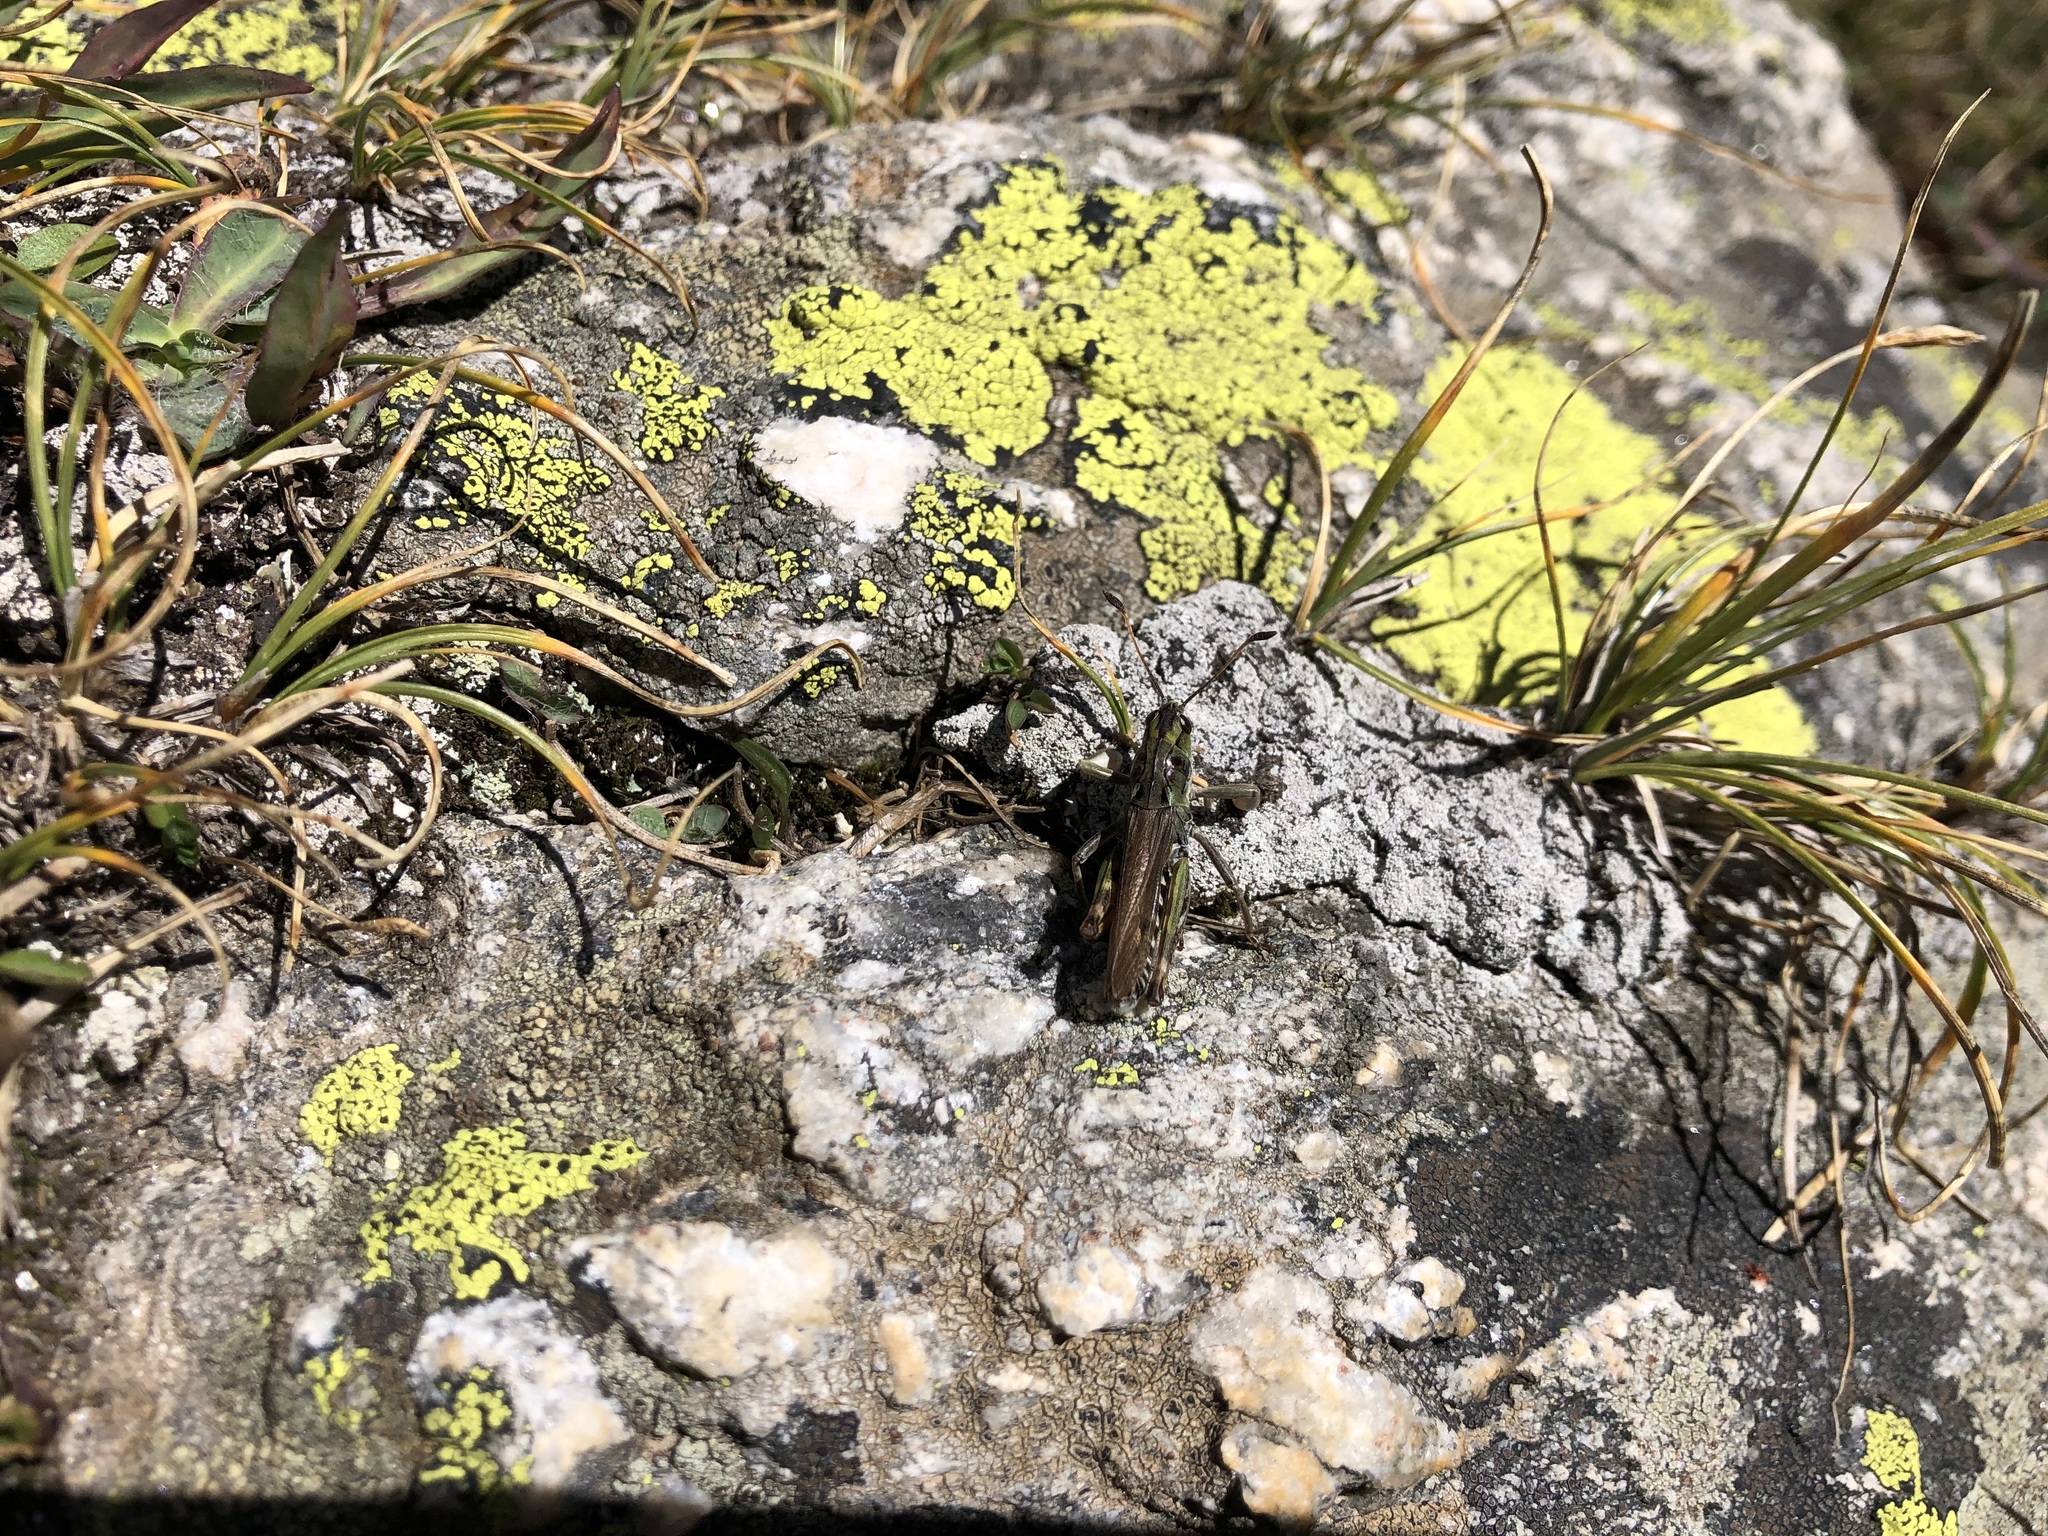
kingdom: Animalia
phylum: Arthropoda
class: Insecta
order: Orthoptera
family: Acrididae
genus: Gomphocerus
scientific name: Gomphocerus sibiricus
